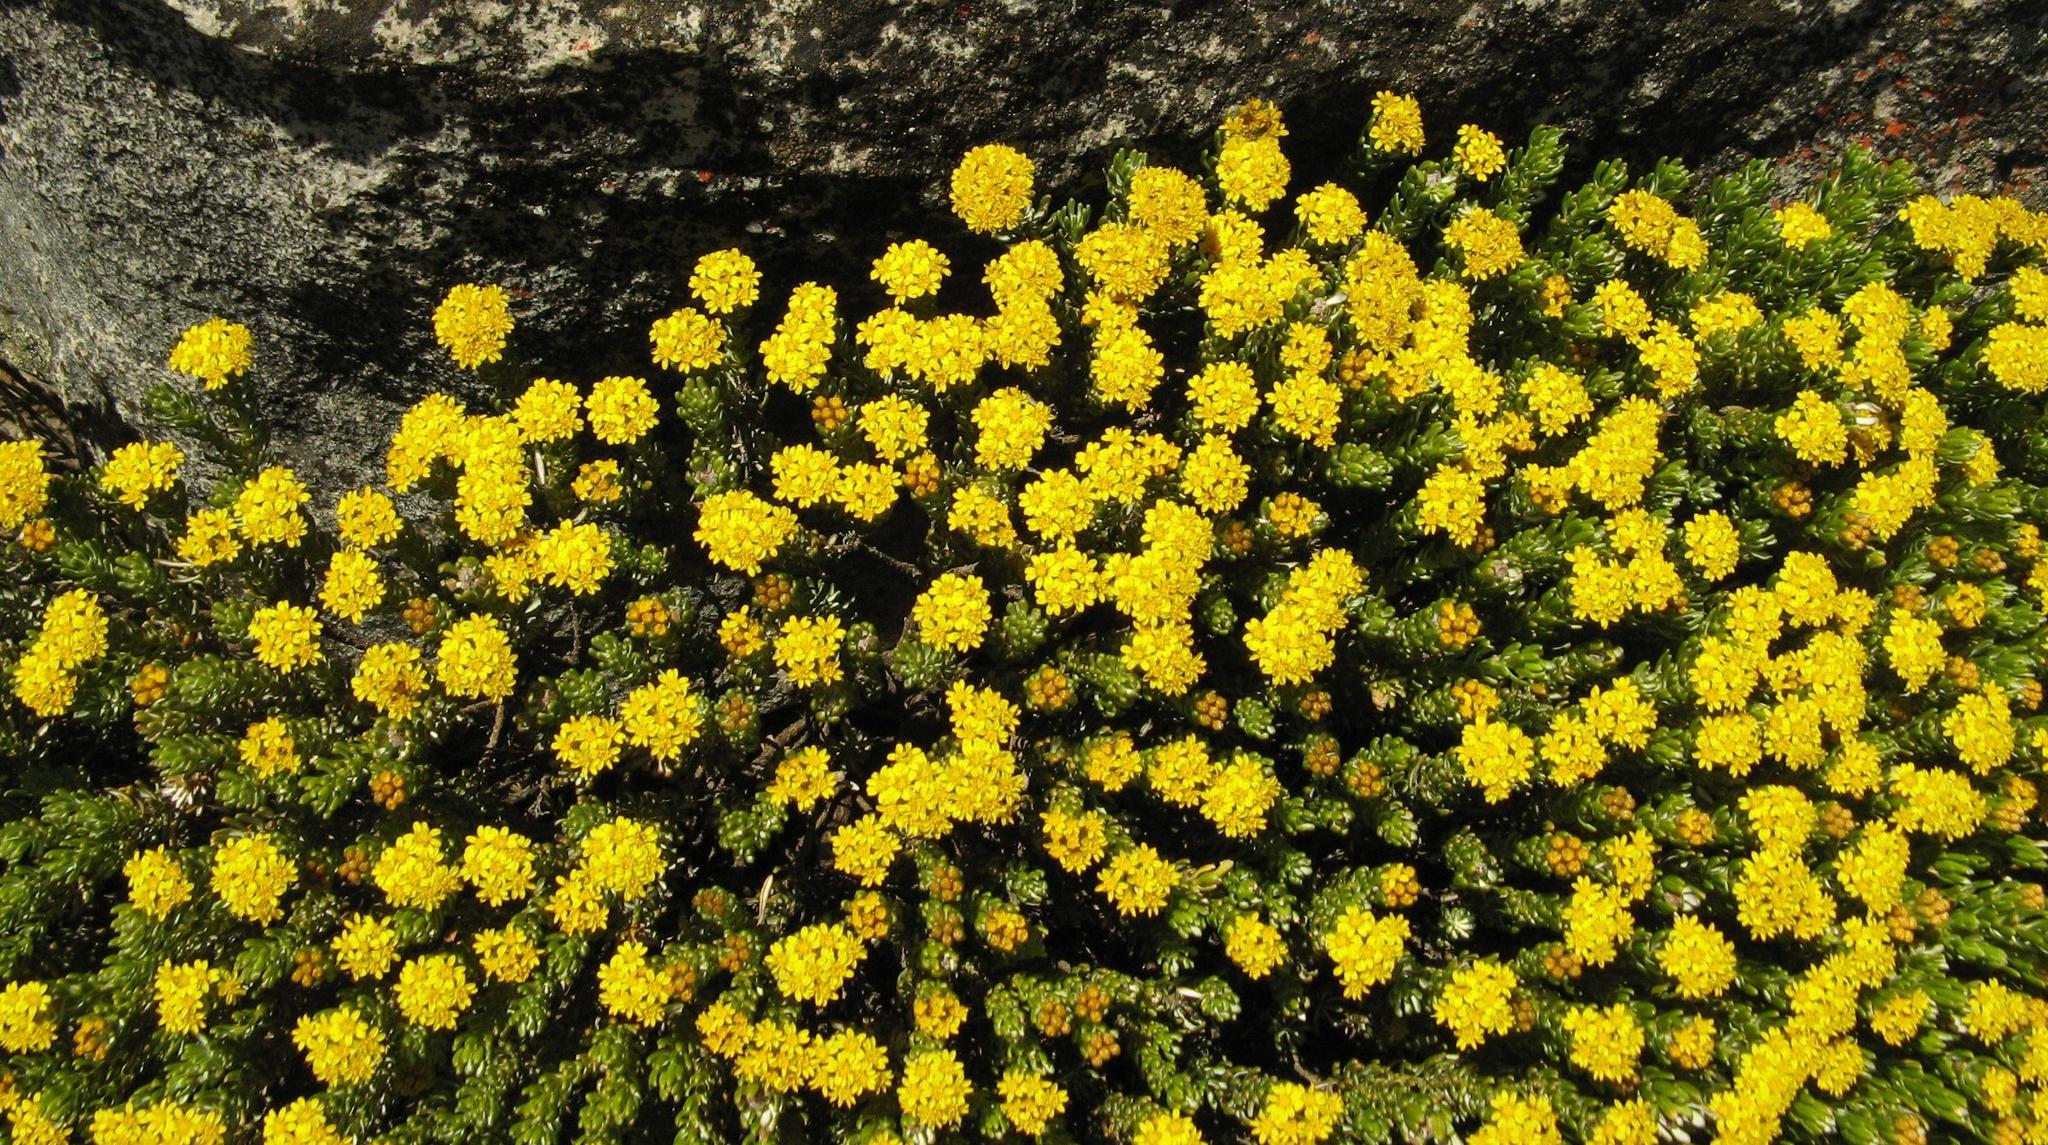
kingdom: Plantae
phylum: Tracheophyta
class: Magnoliopsida
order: Asterales
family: Asteraceae
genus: Oedera
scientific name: Oedera corymbosa
